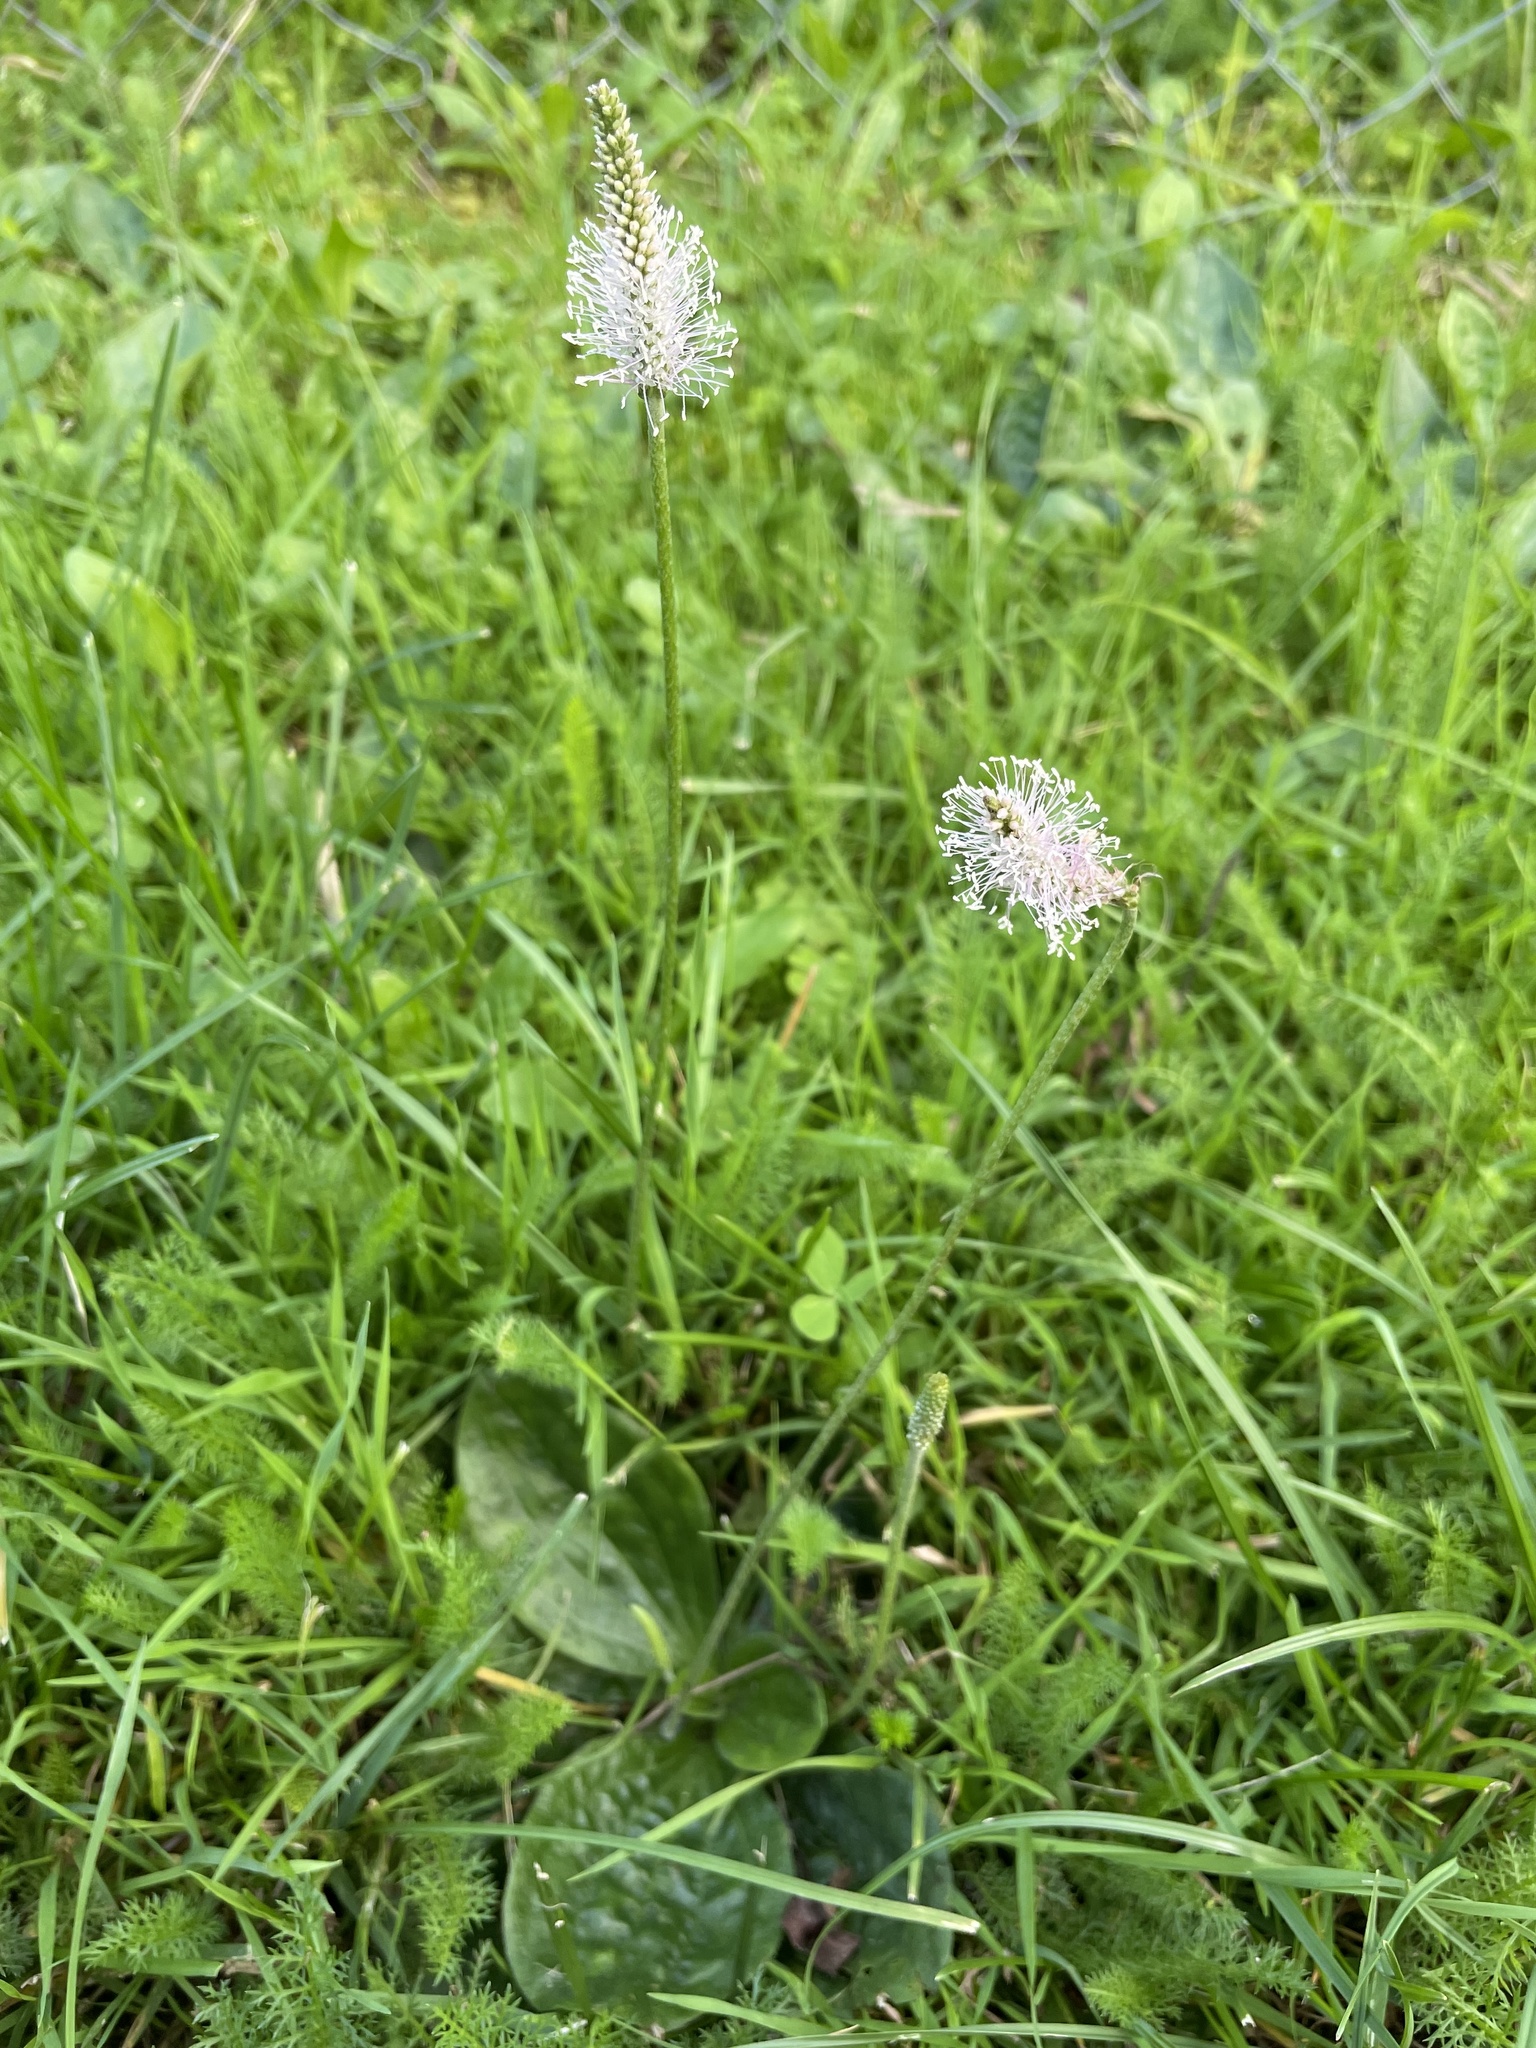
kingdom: Plantae
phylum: Tracheophyta
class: Magnoliopsida
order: Lamiales
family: Plantaginaceae
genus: Plantago
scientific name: Plantago media
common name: Hoary plantain
